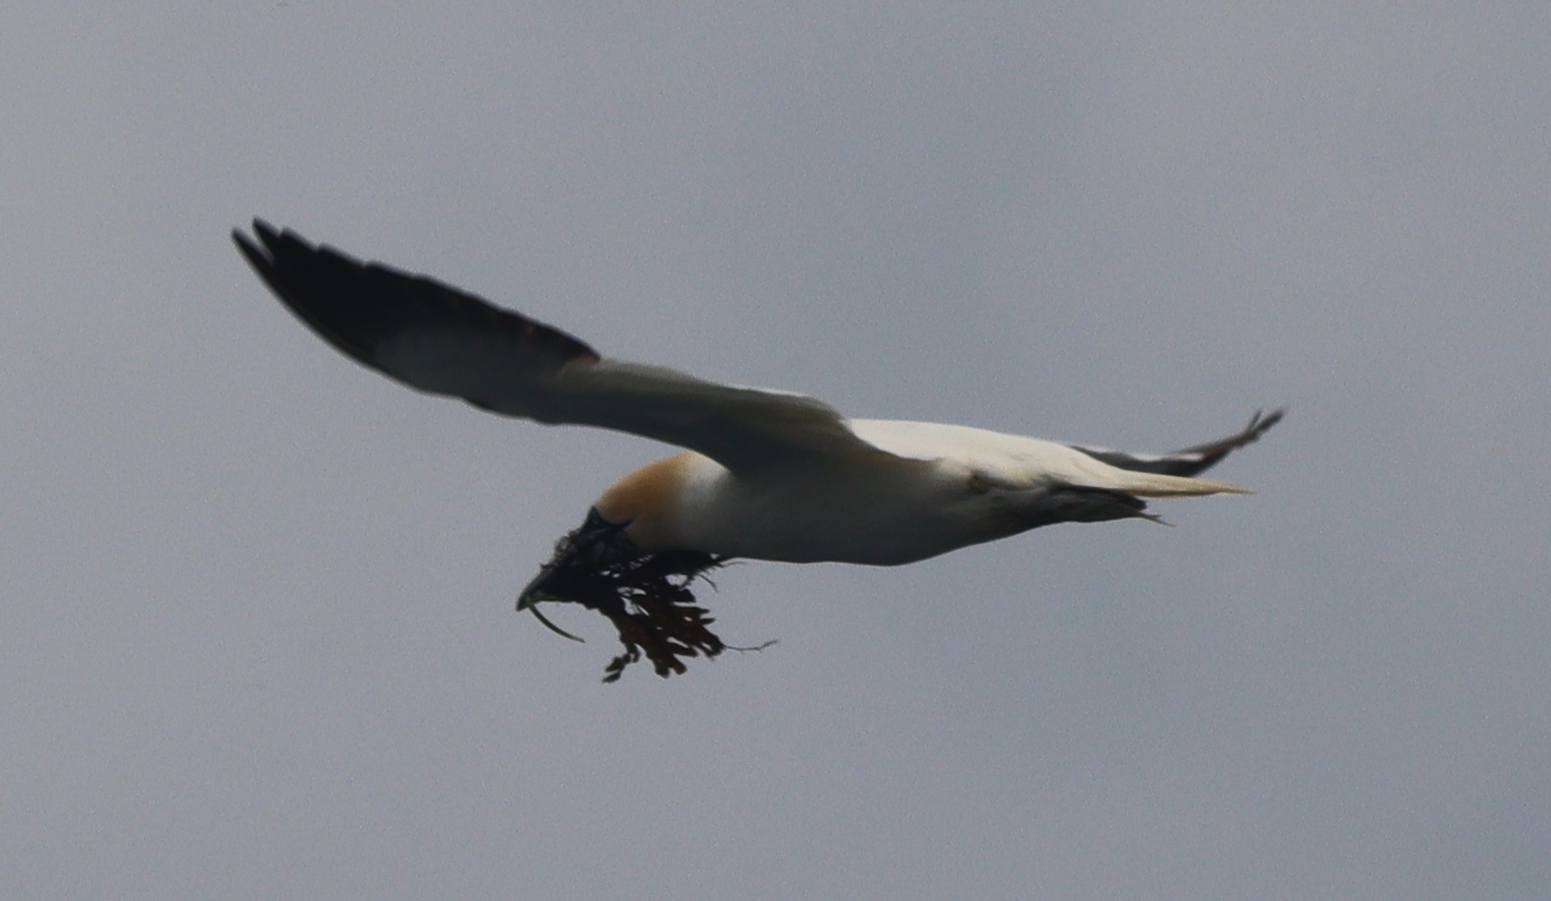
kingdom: Animalia
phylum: Chordata
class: Aves
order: Suliformes
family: Sulidae
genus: Morus
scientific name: Morus bassanus
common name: Northern gannet
